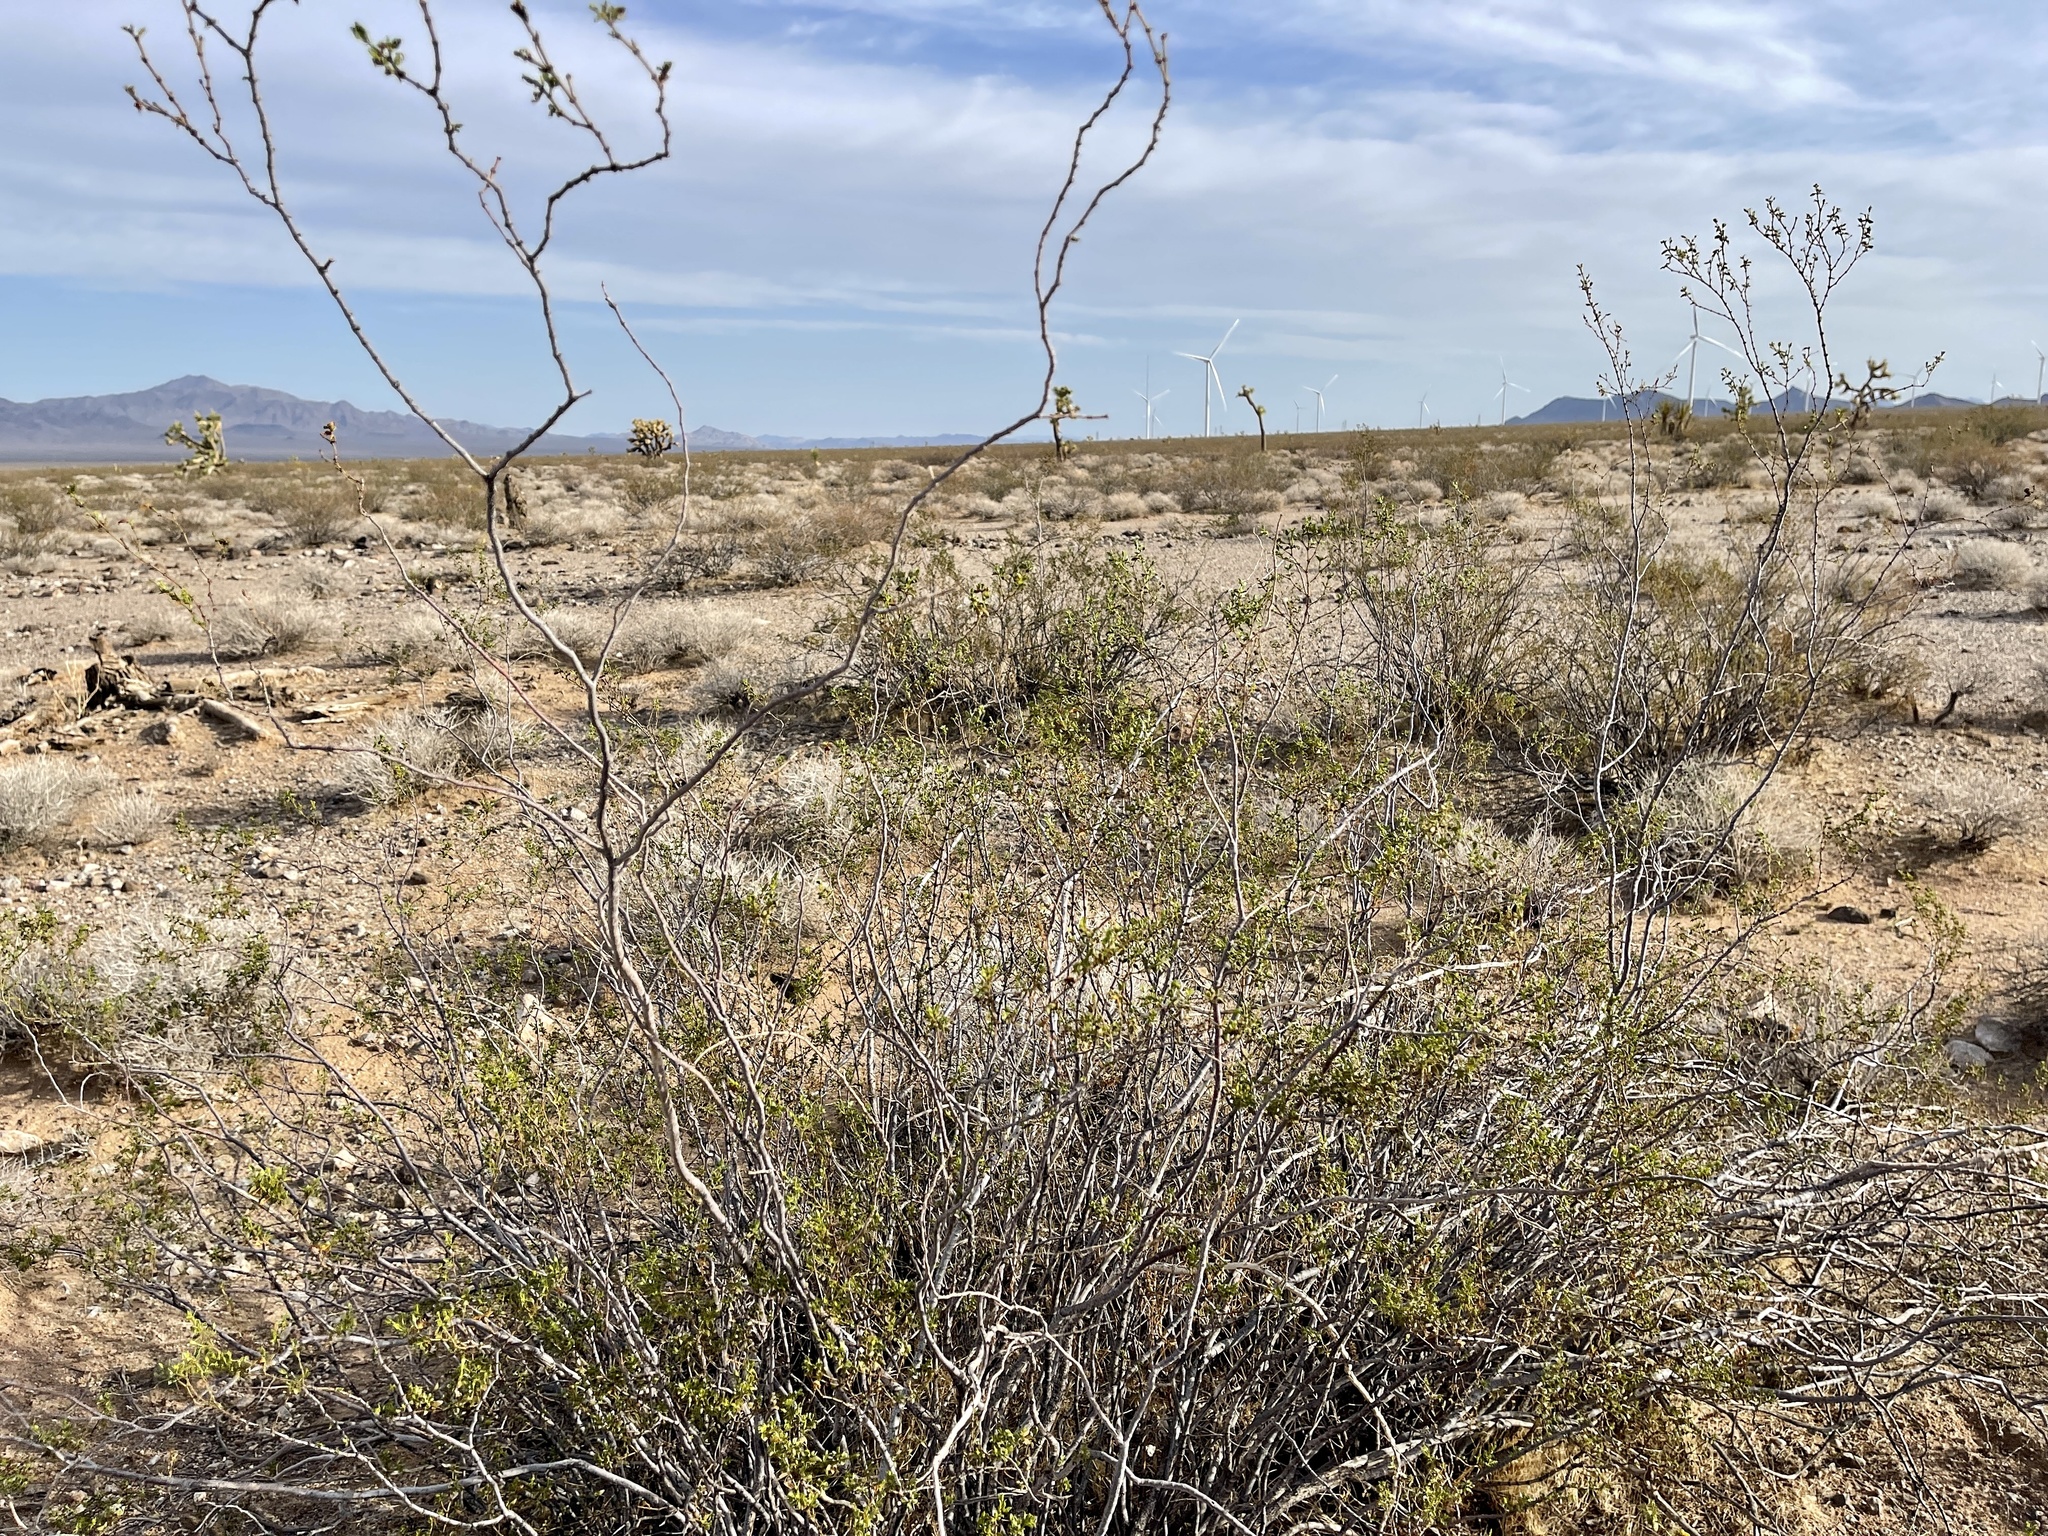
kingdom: Plantae
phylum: Tracheophyta
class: Magnoliopsida
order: Zygophyllales
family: Zygophyllaceae
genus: Larrea
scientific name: Larrea tridentata
